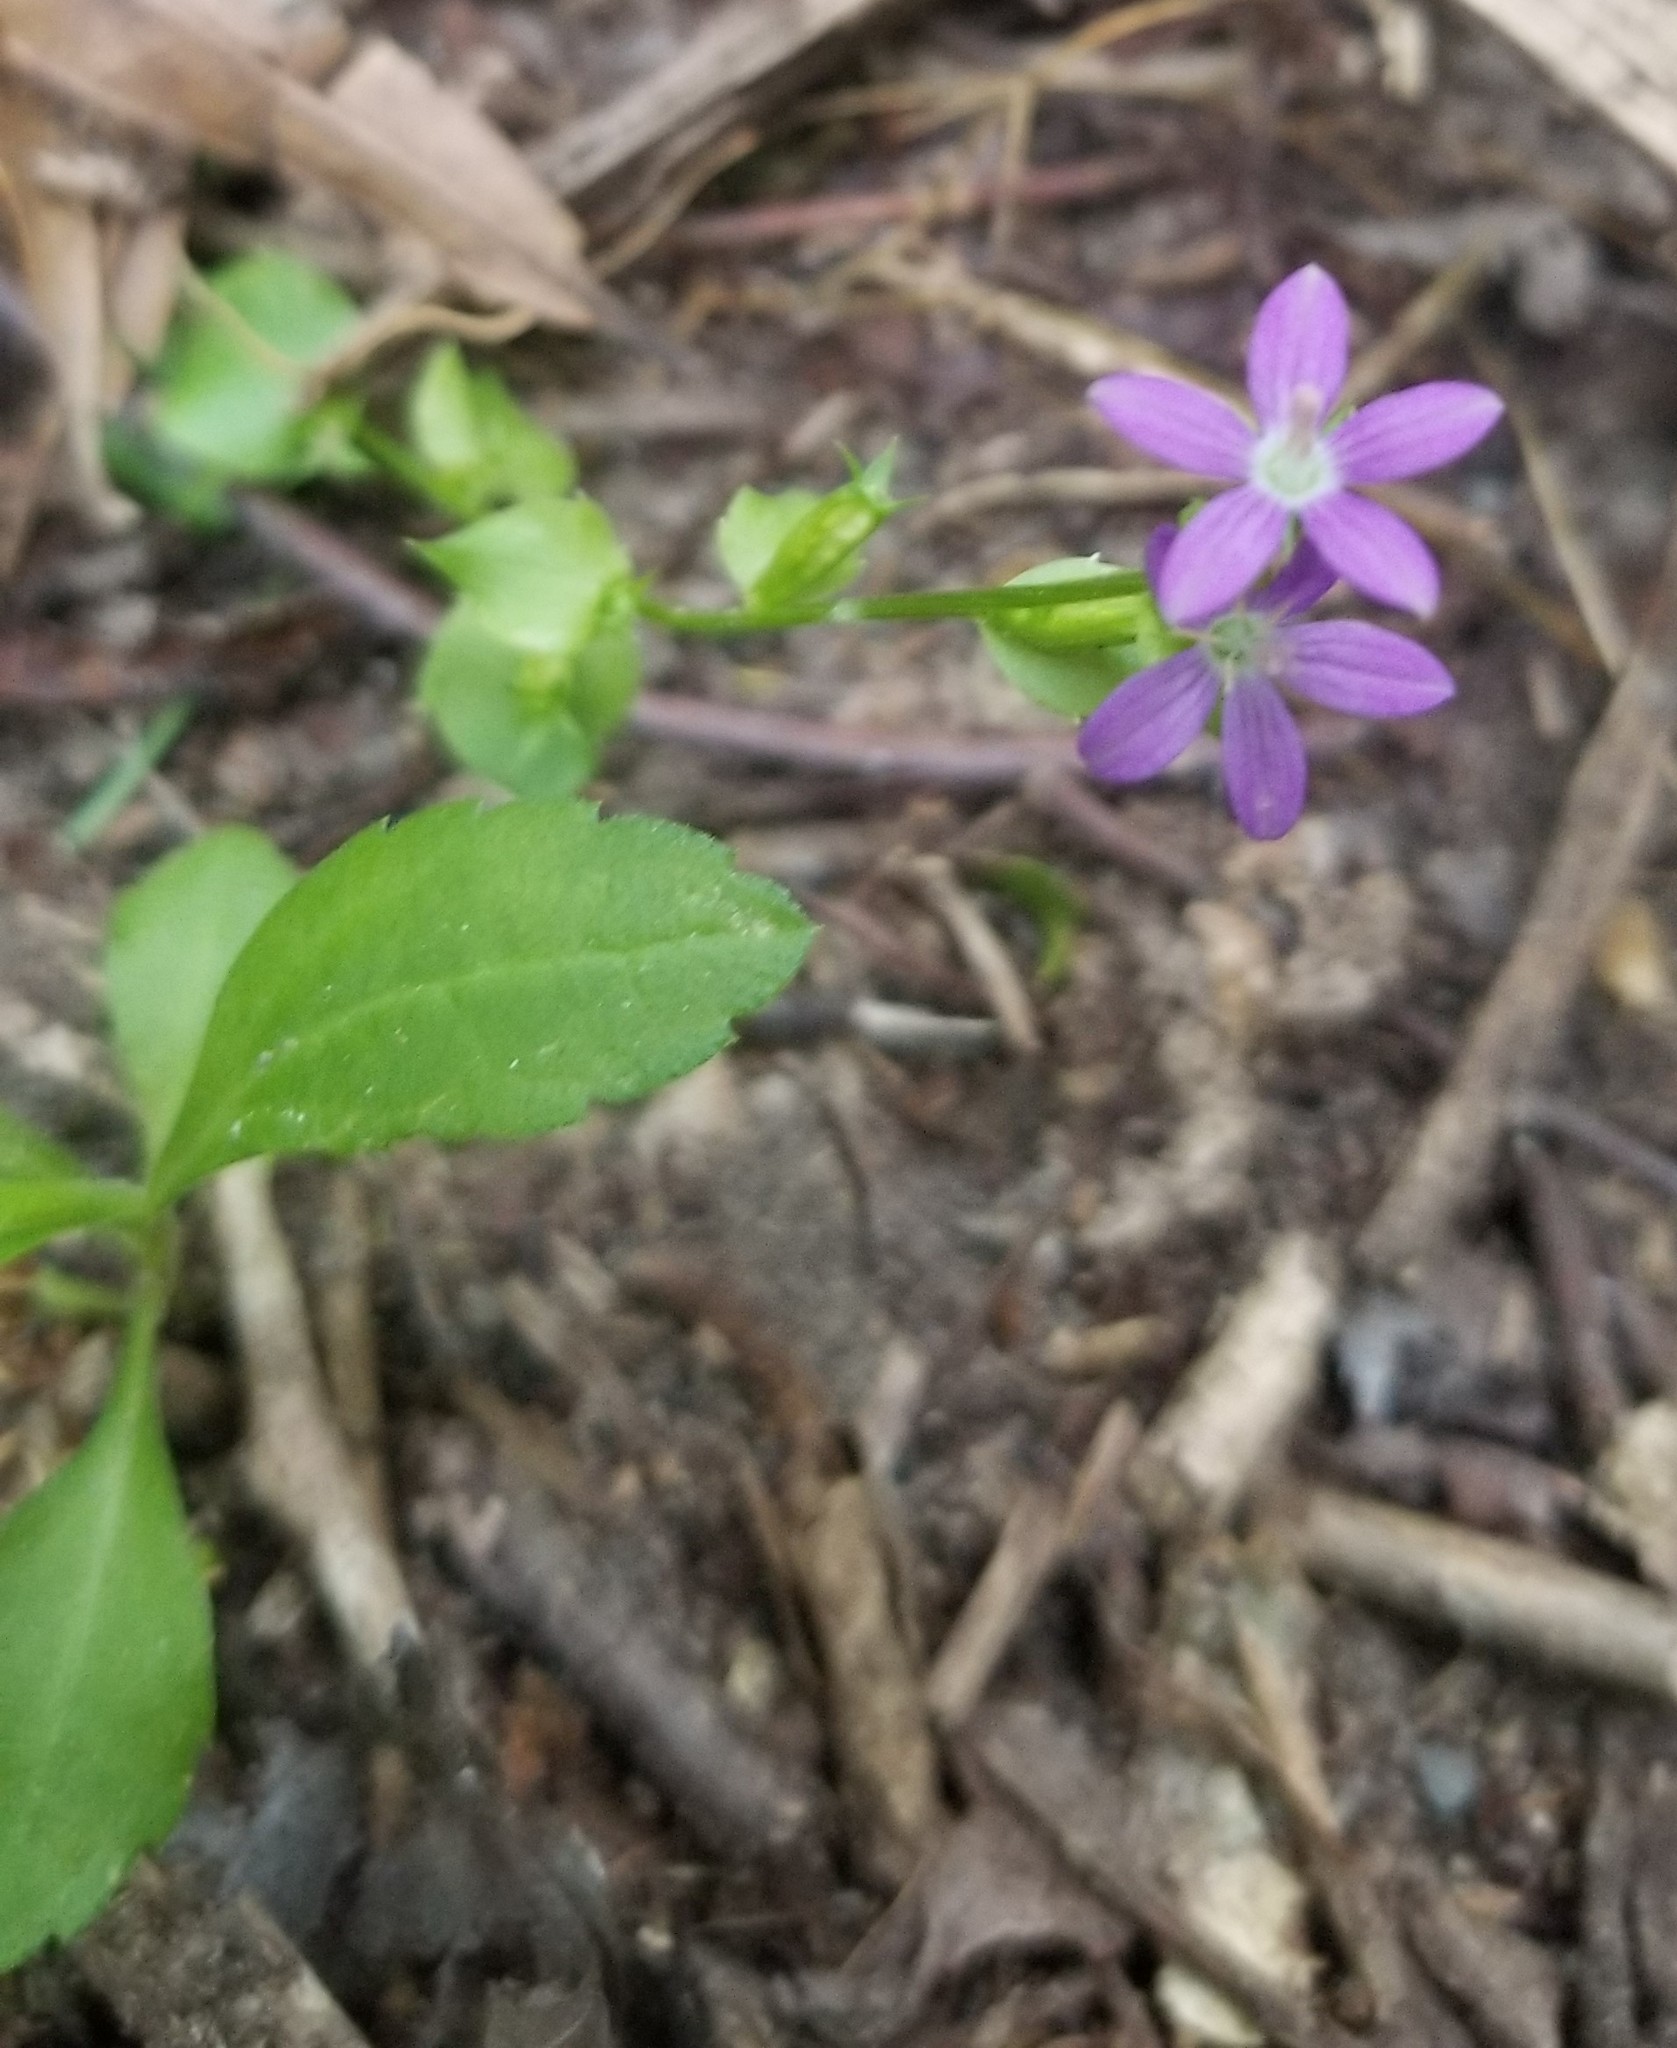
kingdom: Plantae
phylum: Tracheophyta
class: Magnoliopsida
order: Asterales
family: Campanulaceae
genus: Triodanis
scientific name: Triodanis biflora
